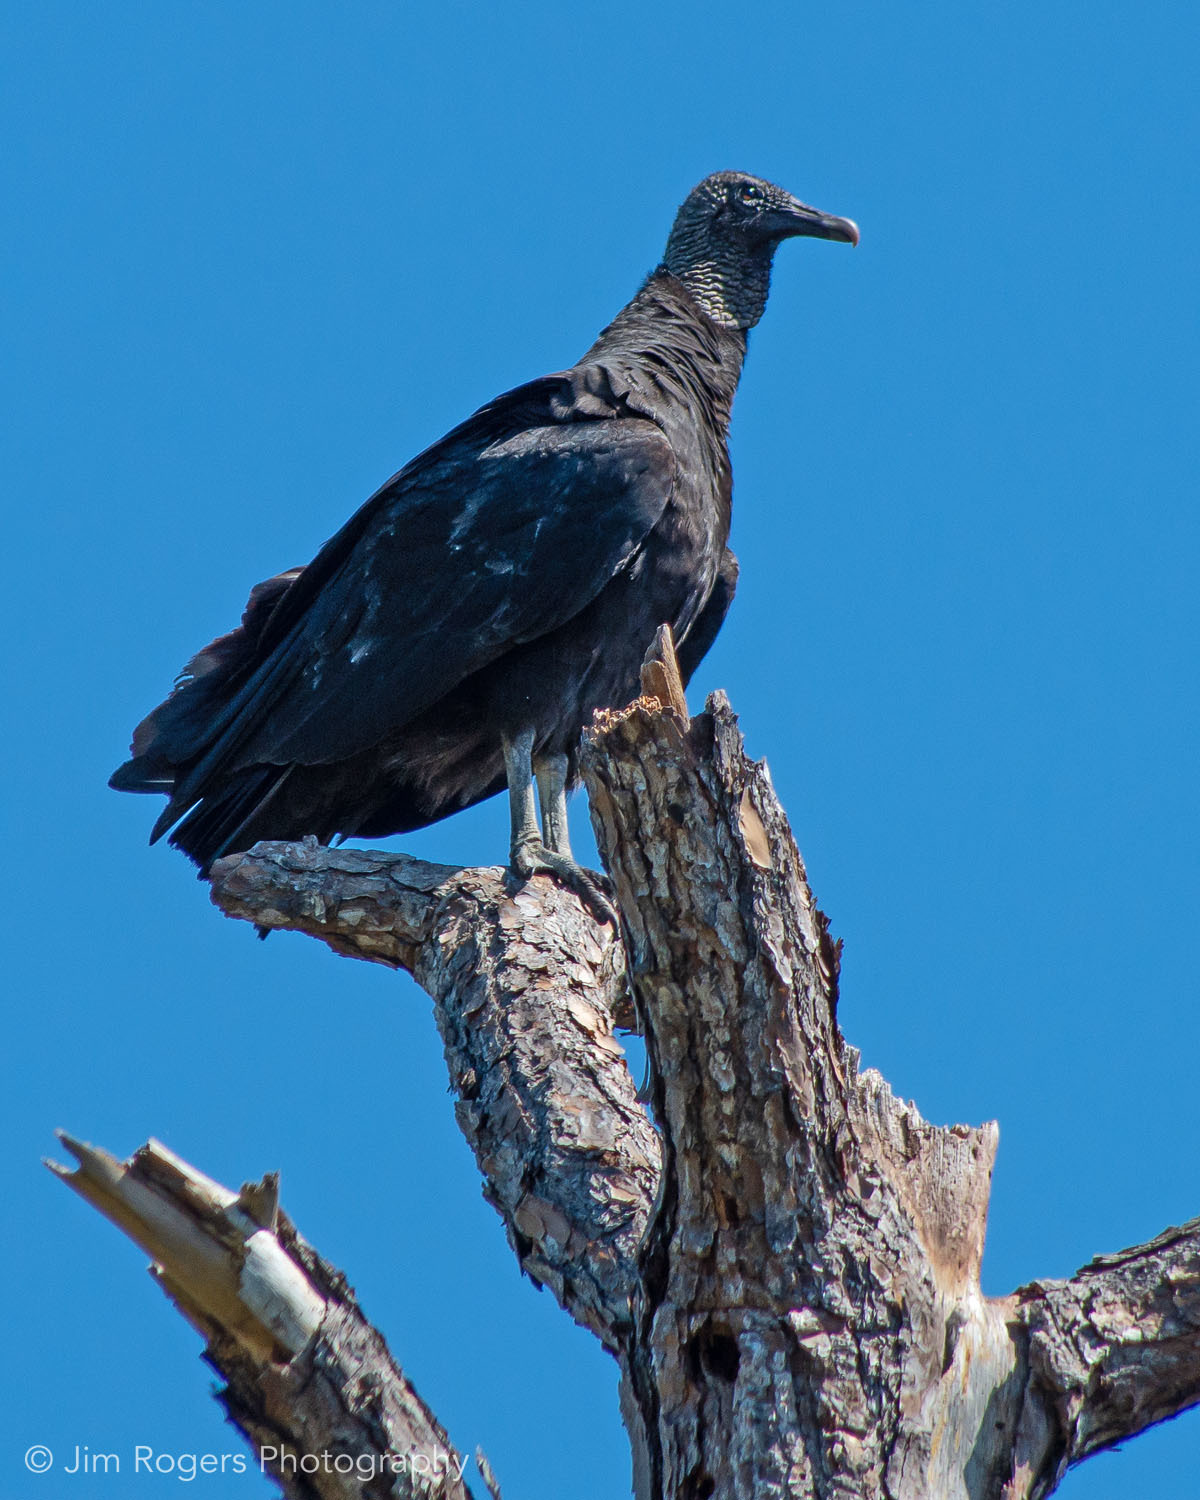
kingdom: Animalia
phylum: Chordata
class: Aves
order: Accipitriformes
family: Cathartidae
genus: Coragyps
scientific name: Coragyps atratus
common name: Black vulture
